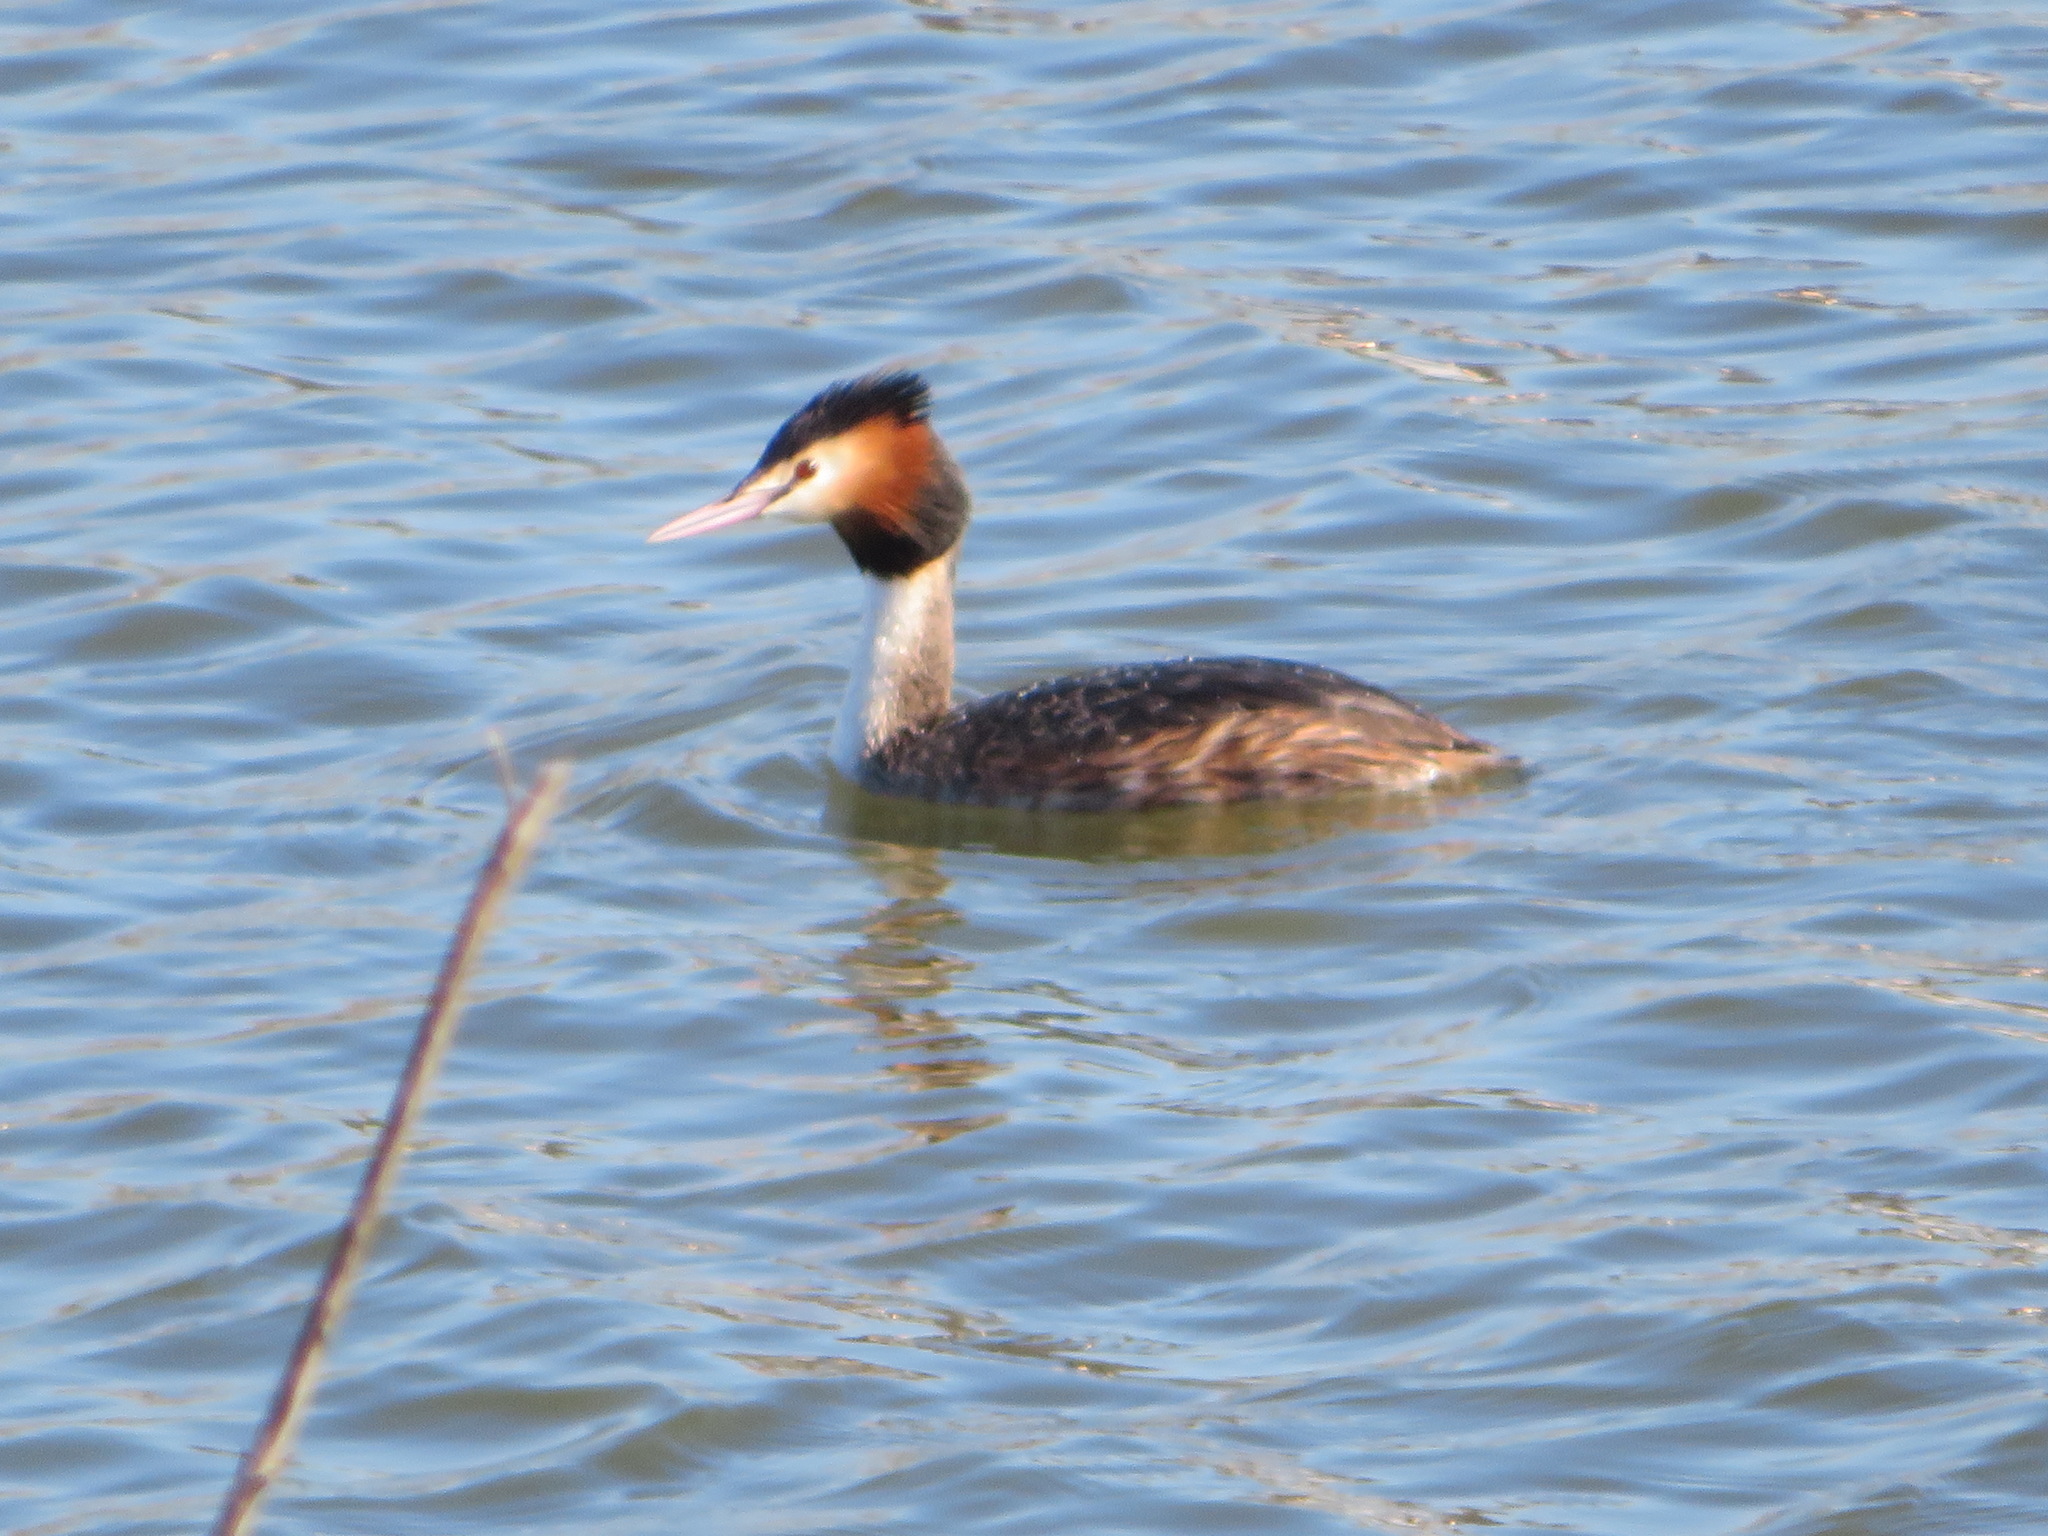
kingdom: Animalia
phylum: Chordata
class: Aves
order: Podicipediformes
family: Podicipedidae
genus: Podiceps
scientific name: Podiceps cristatus
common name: Great crested grebe
